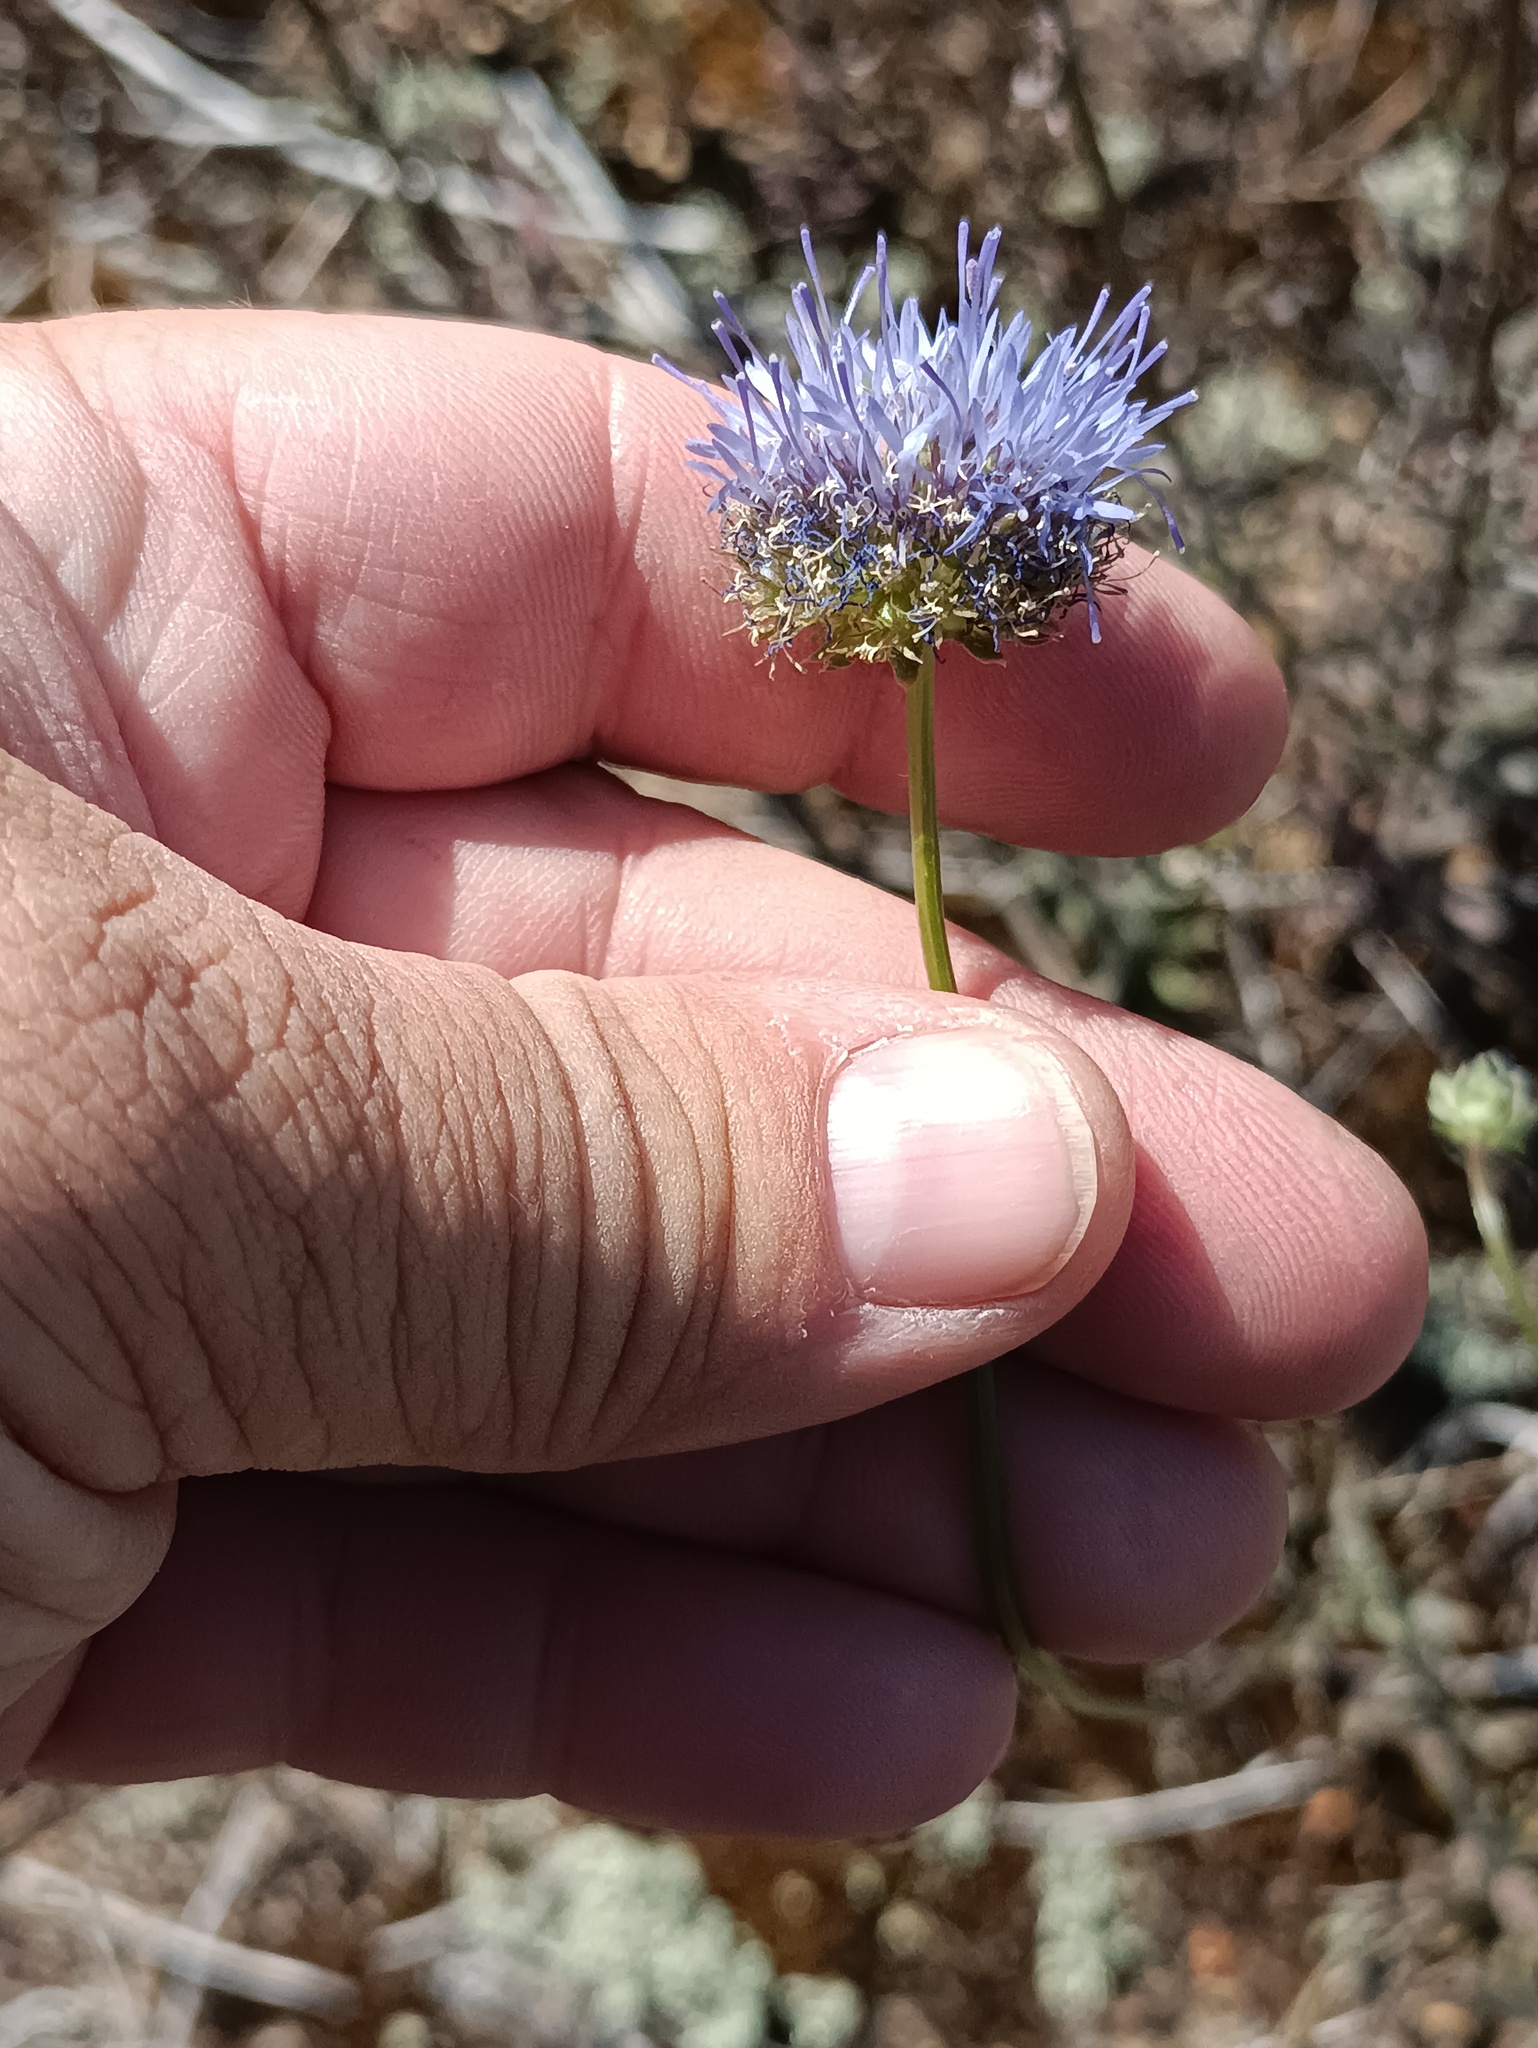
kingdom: Plantae
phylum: Tracheophyta
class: Magnoliopsida
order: Asterales
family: Campanulaceae
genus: Jasione
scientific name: Jasione montana
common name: Sheep's-bit
